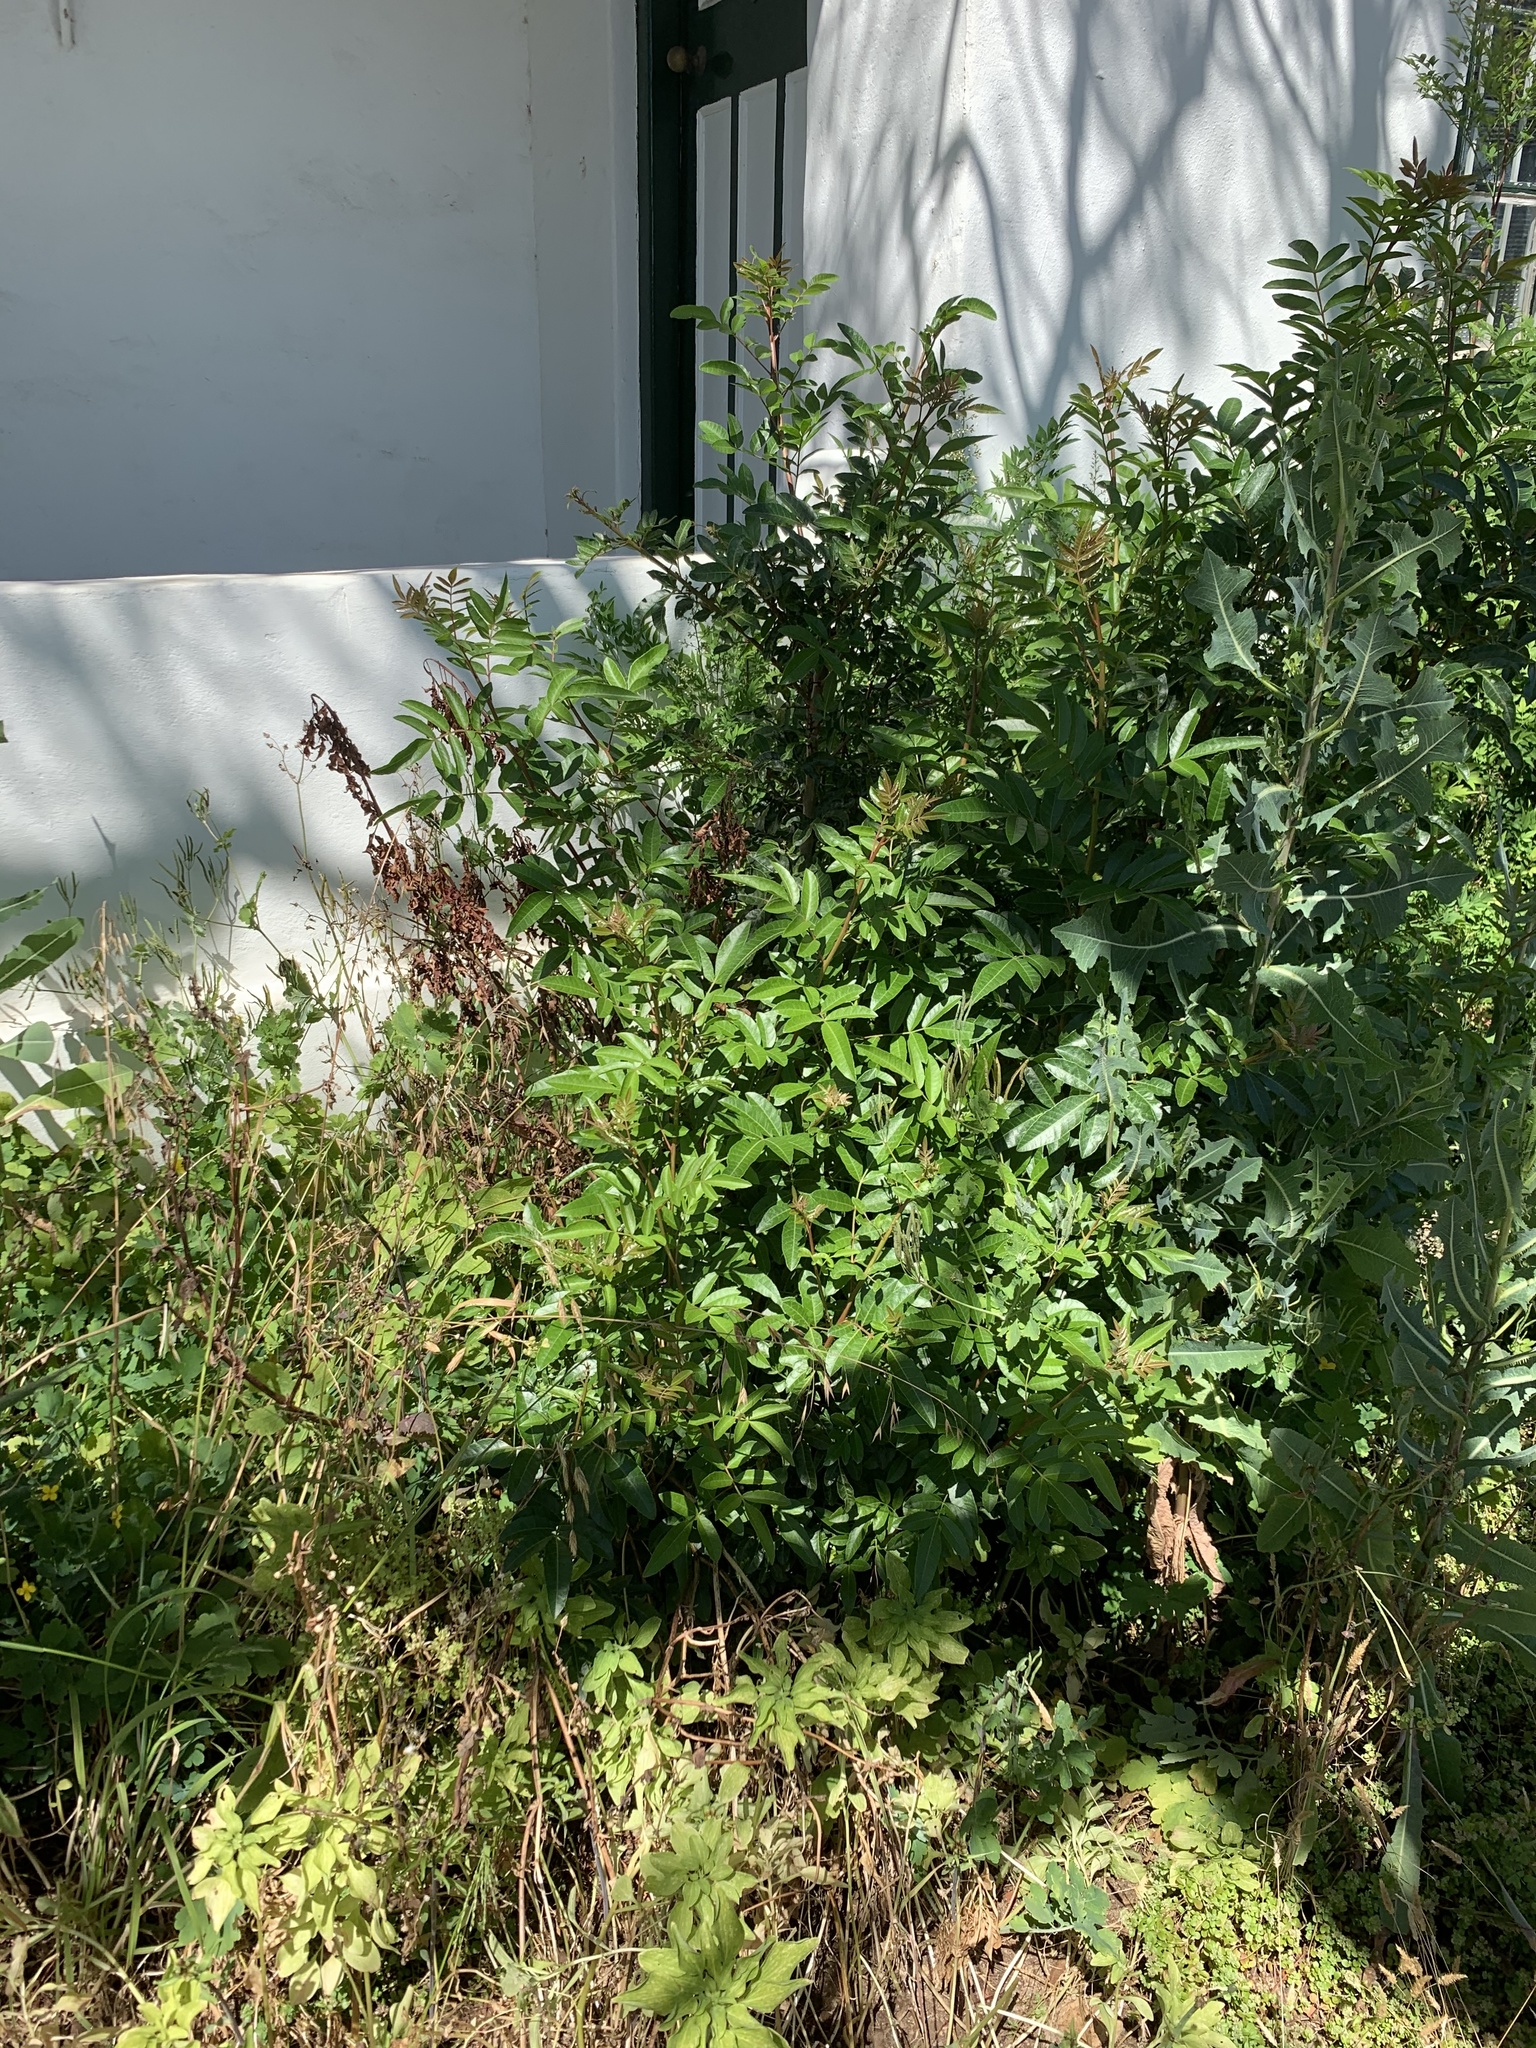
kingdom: Plantae
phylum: Tracheophyta
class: Magnoliopsida
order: Sapindales
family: Anacardiaceae
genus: Schinus
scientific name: Schinus terebinthifolia
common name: Brazilian peppertree
